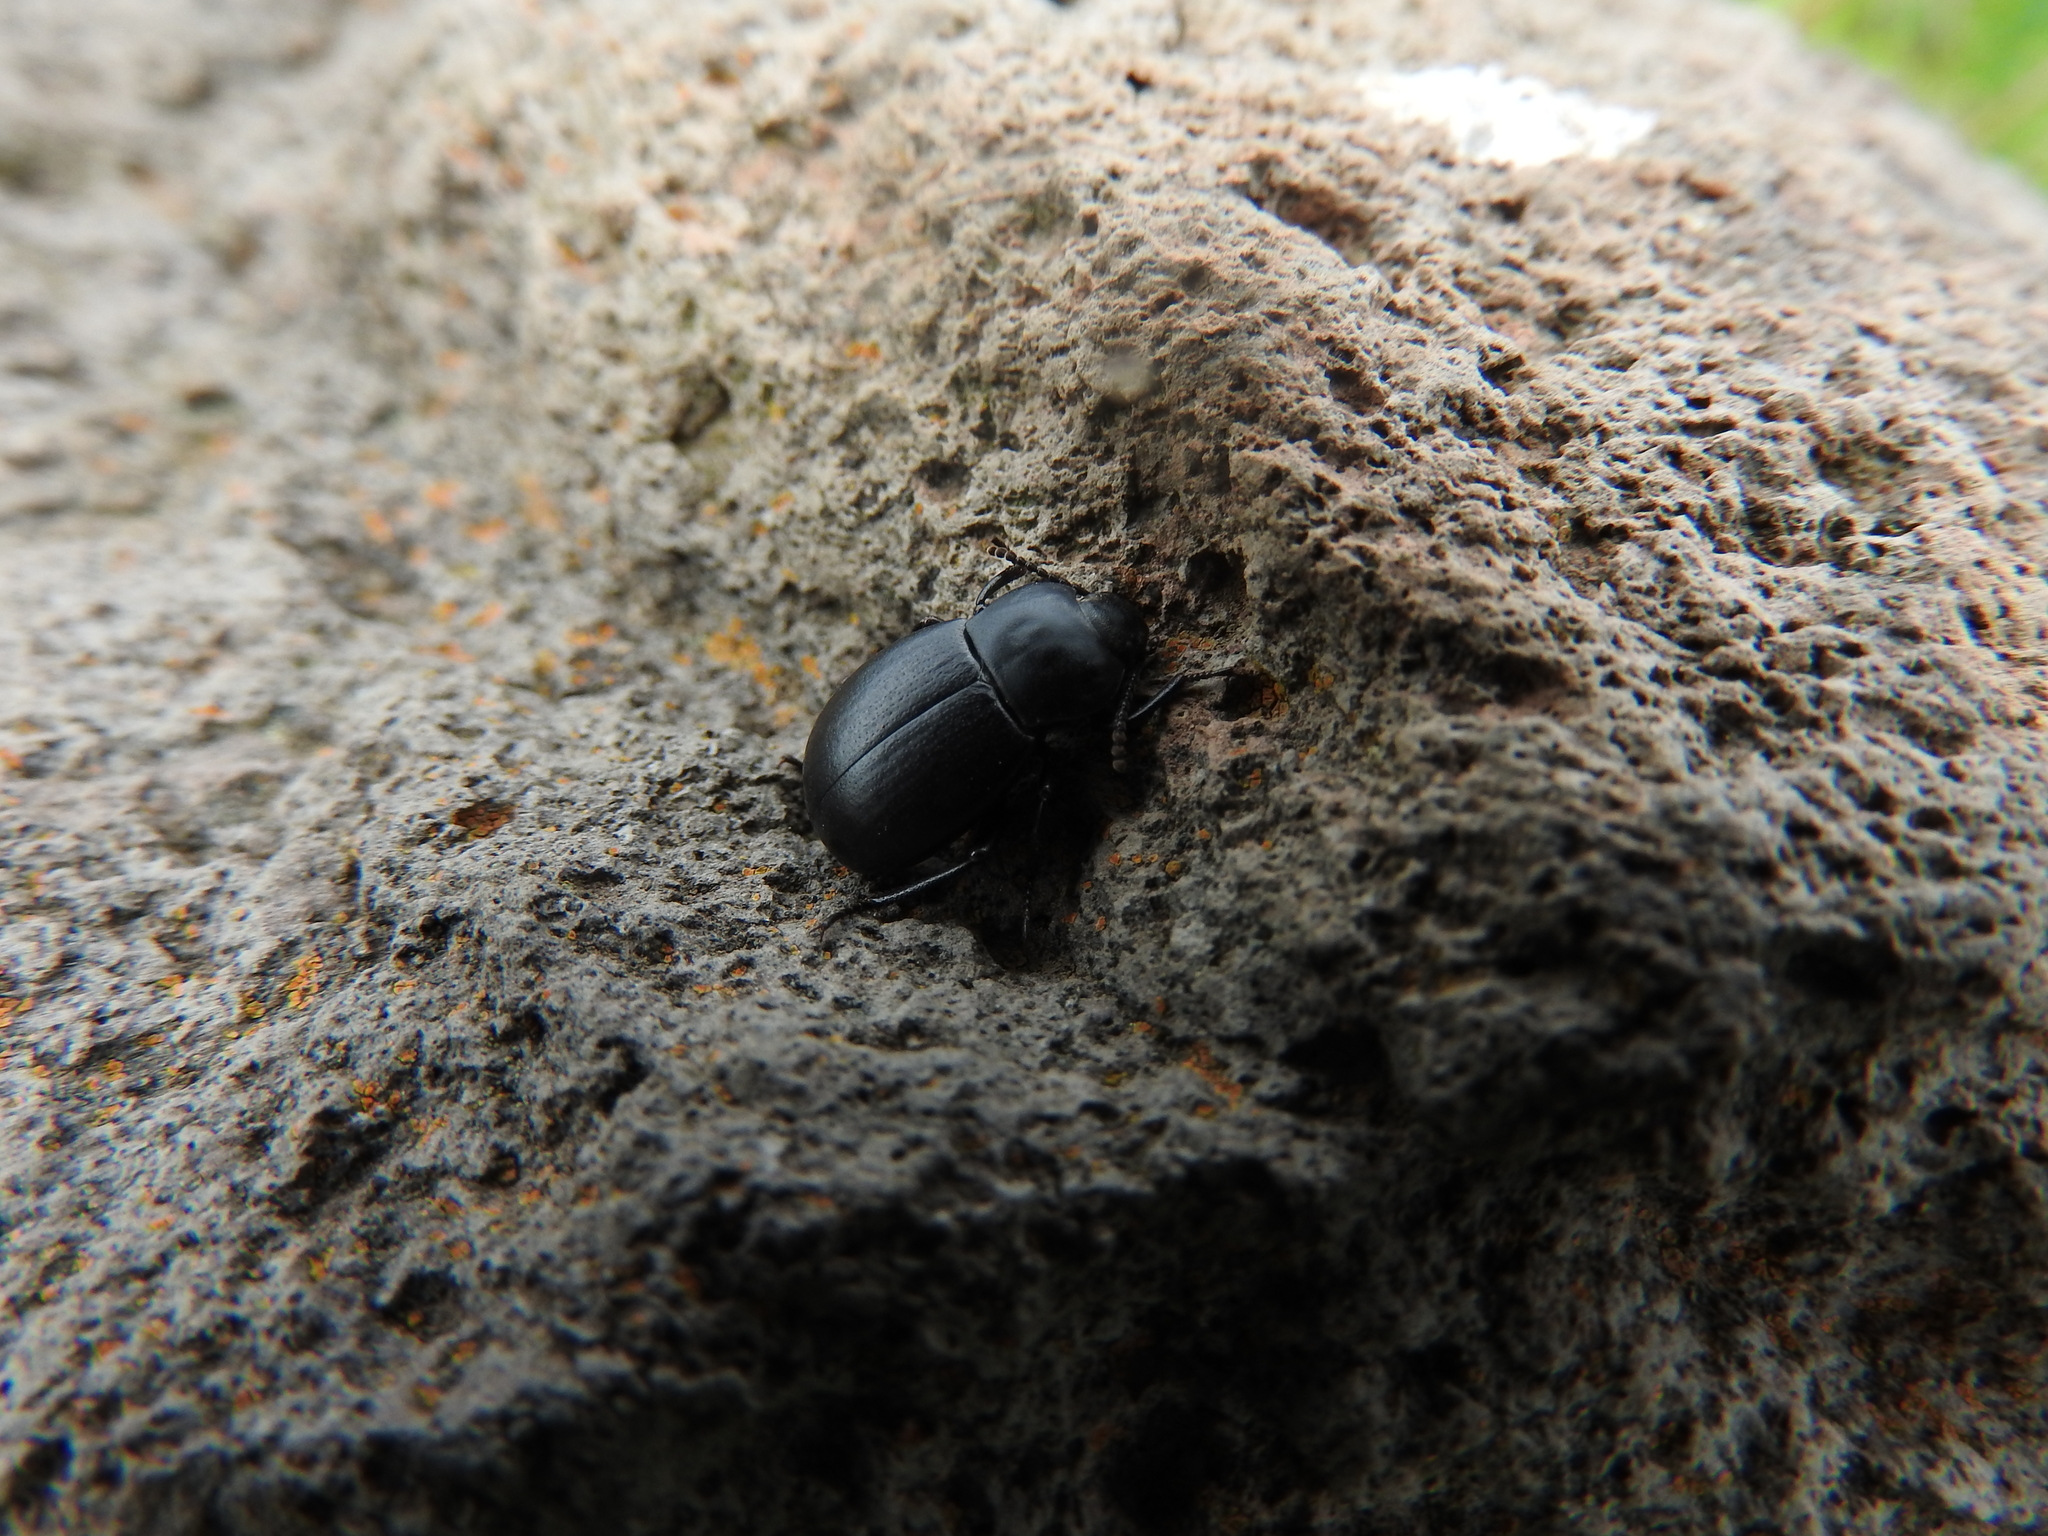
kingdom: Animalia
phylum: Arthropoda
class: Insecta
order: Coleoptera
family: Tenebrionidae
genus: Eleodes
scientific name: Eleodes connata
